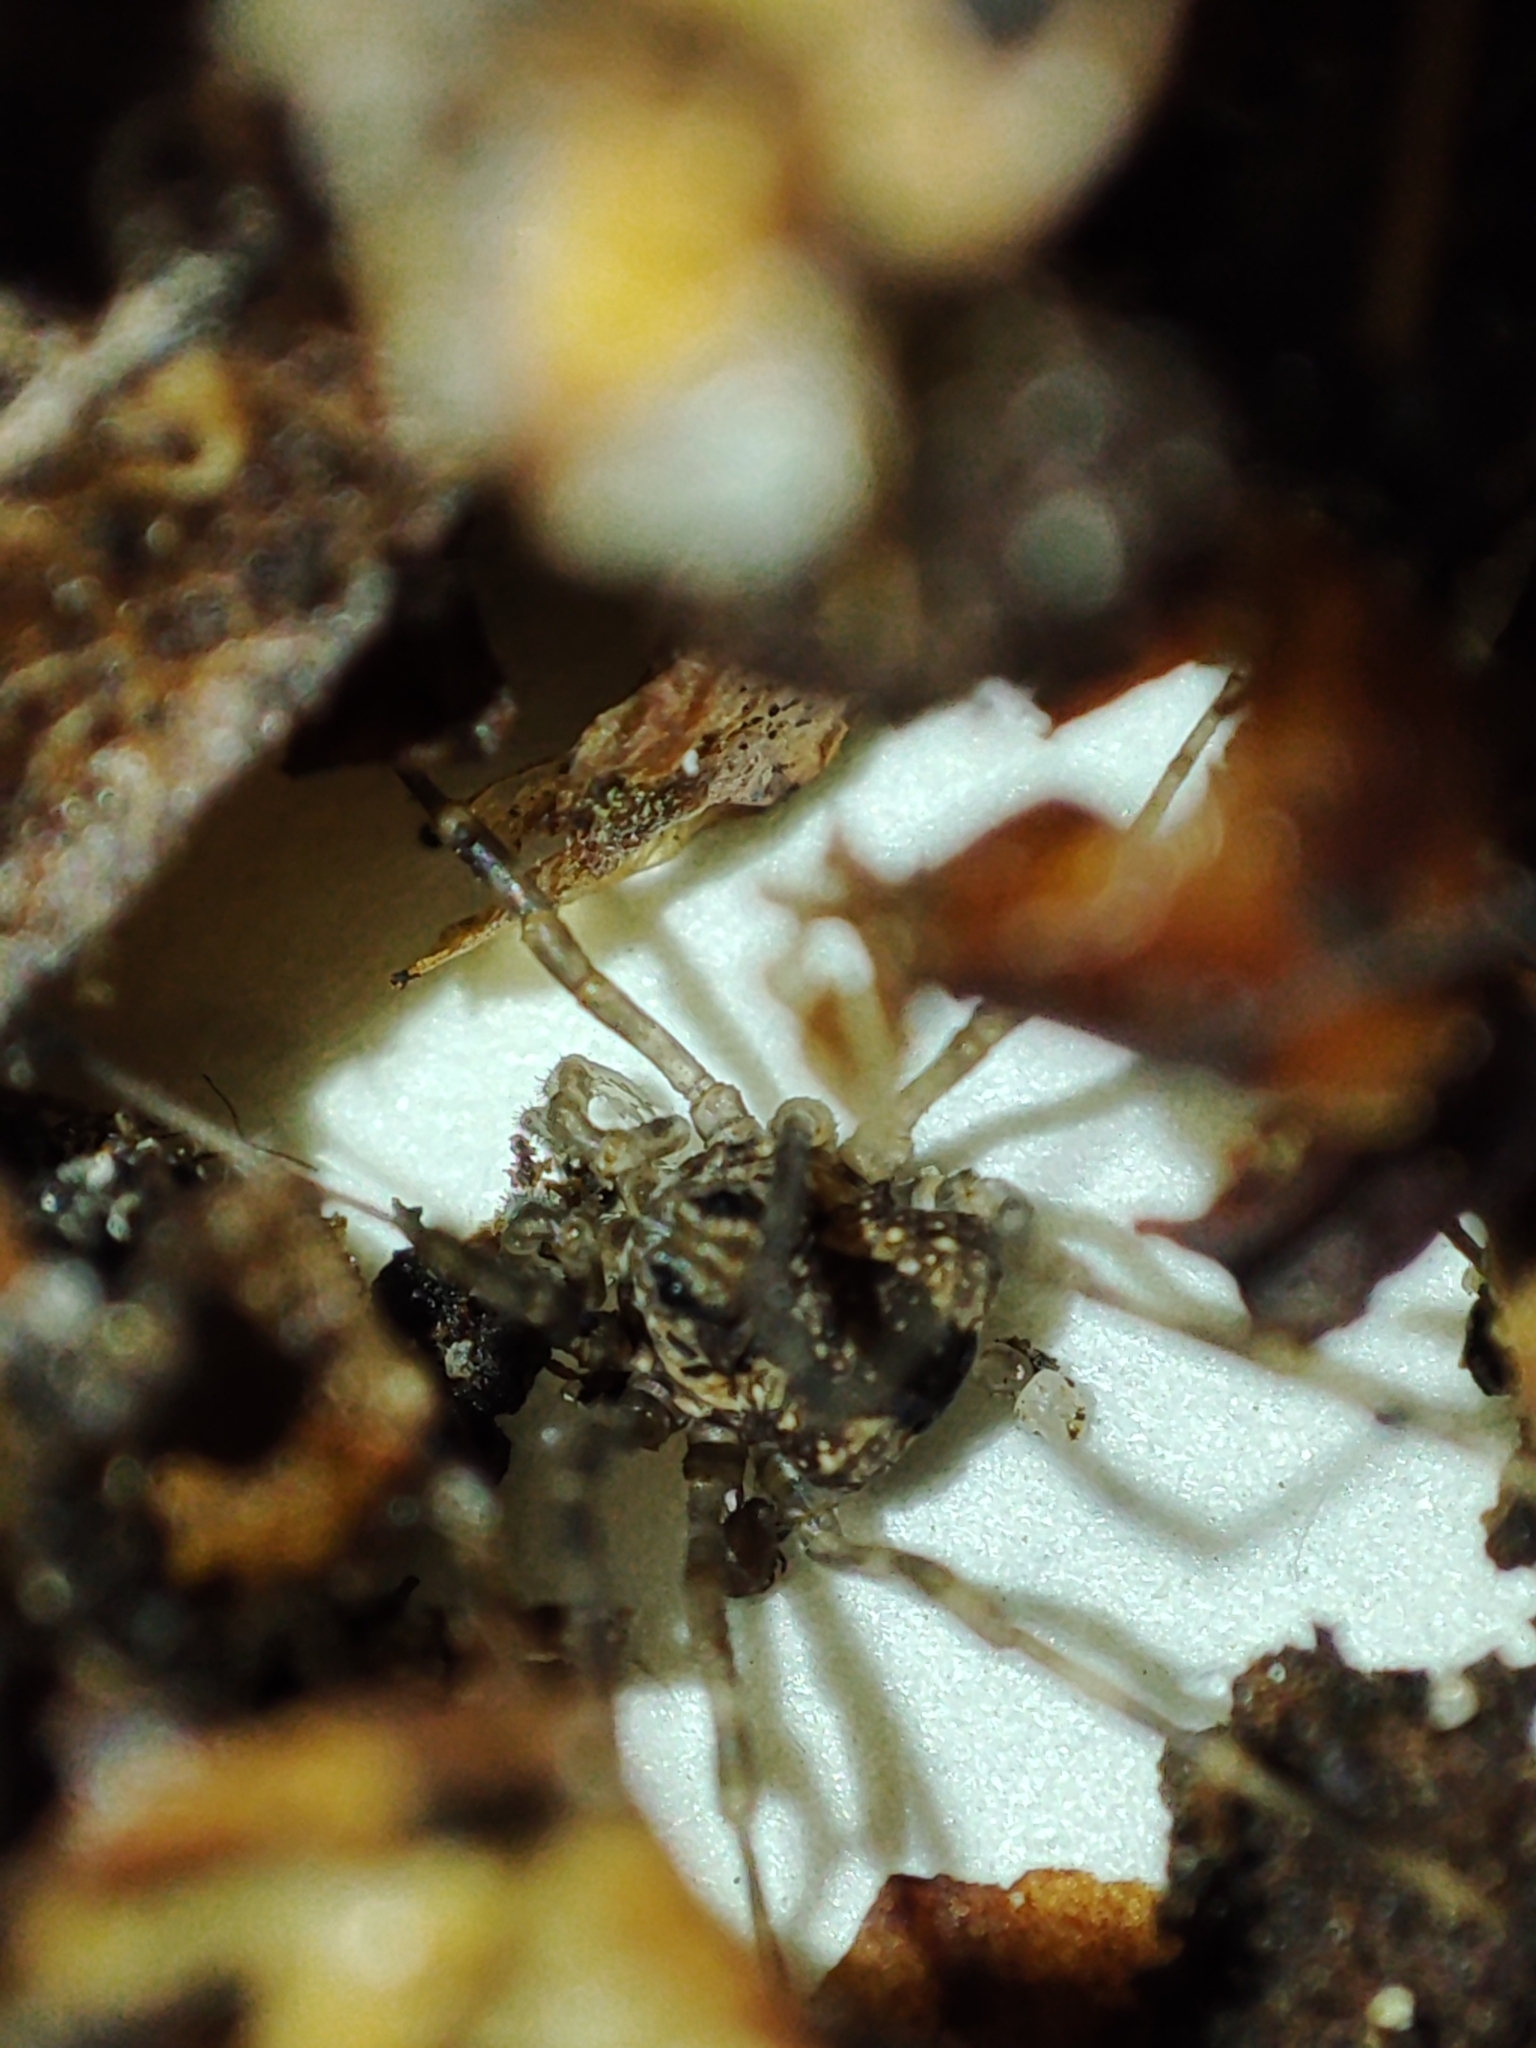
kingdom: Animalia
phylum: Arthropoda
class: Arachnida
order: Opiliones
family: Phalangiidae
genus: Rilaena
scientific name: Rilaena triangularis
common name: Spring harvestman
